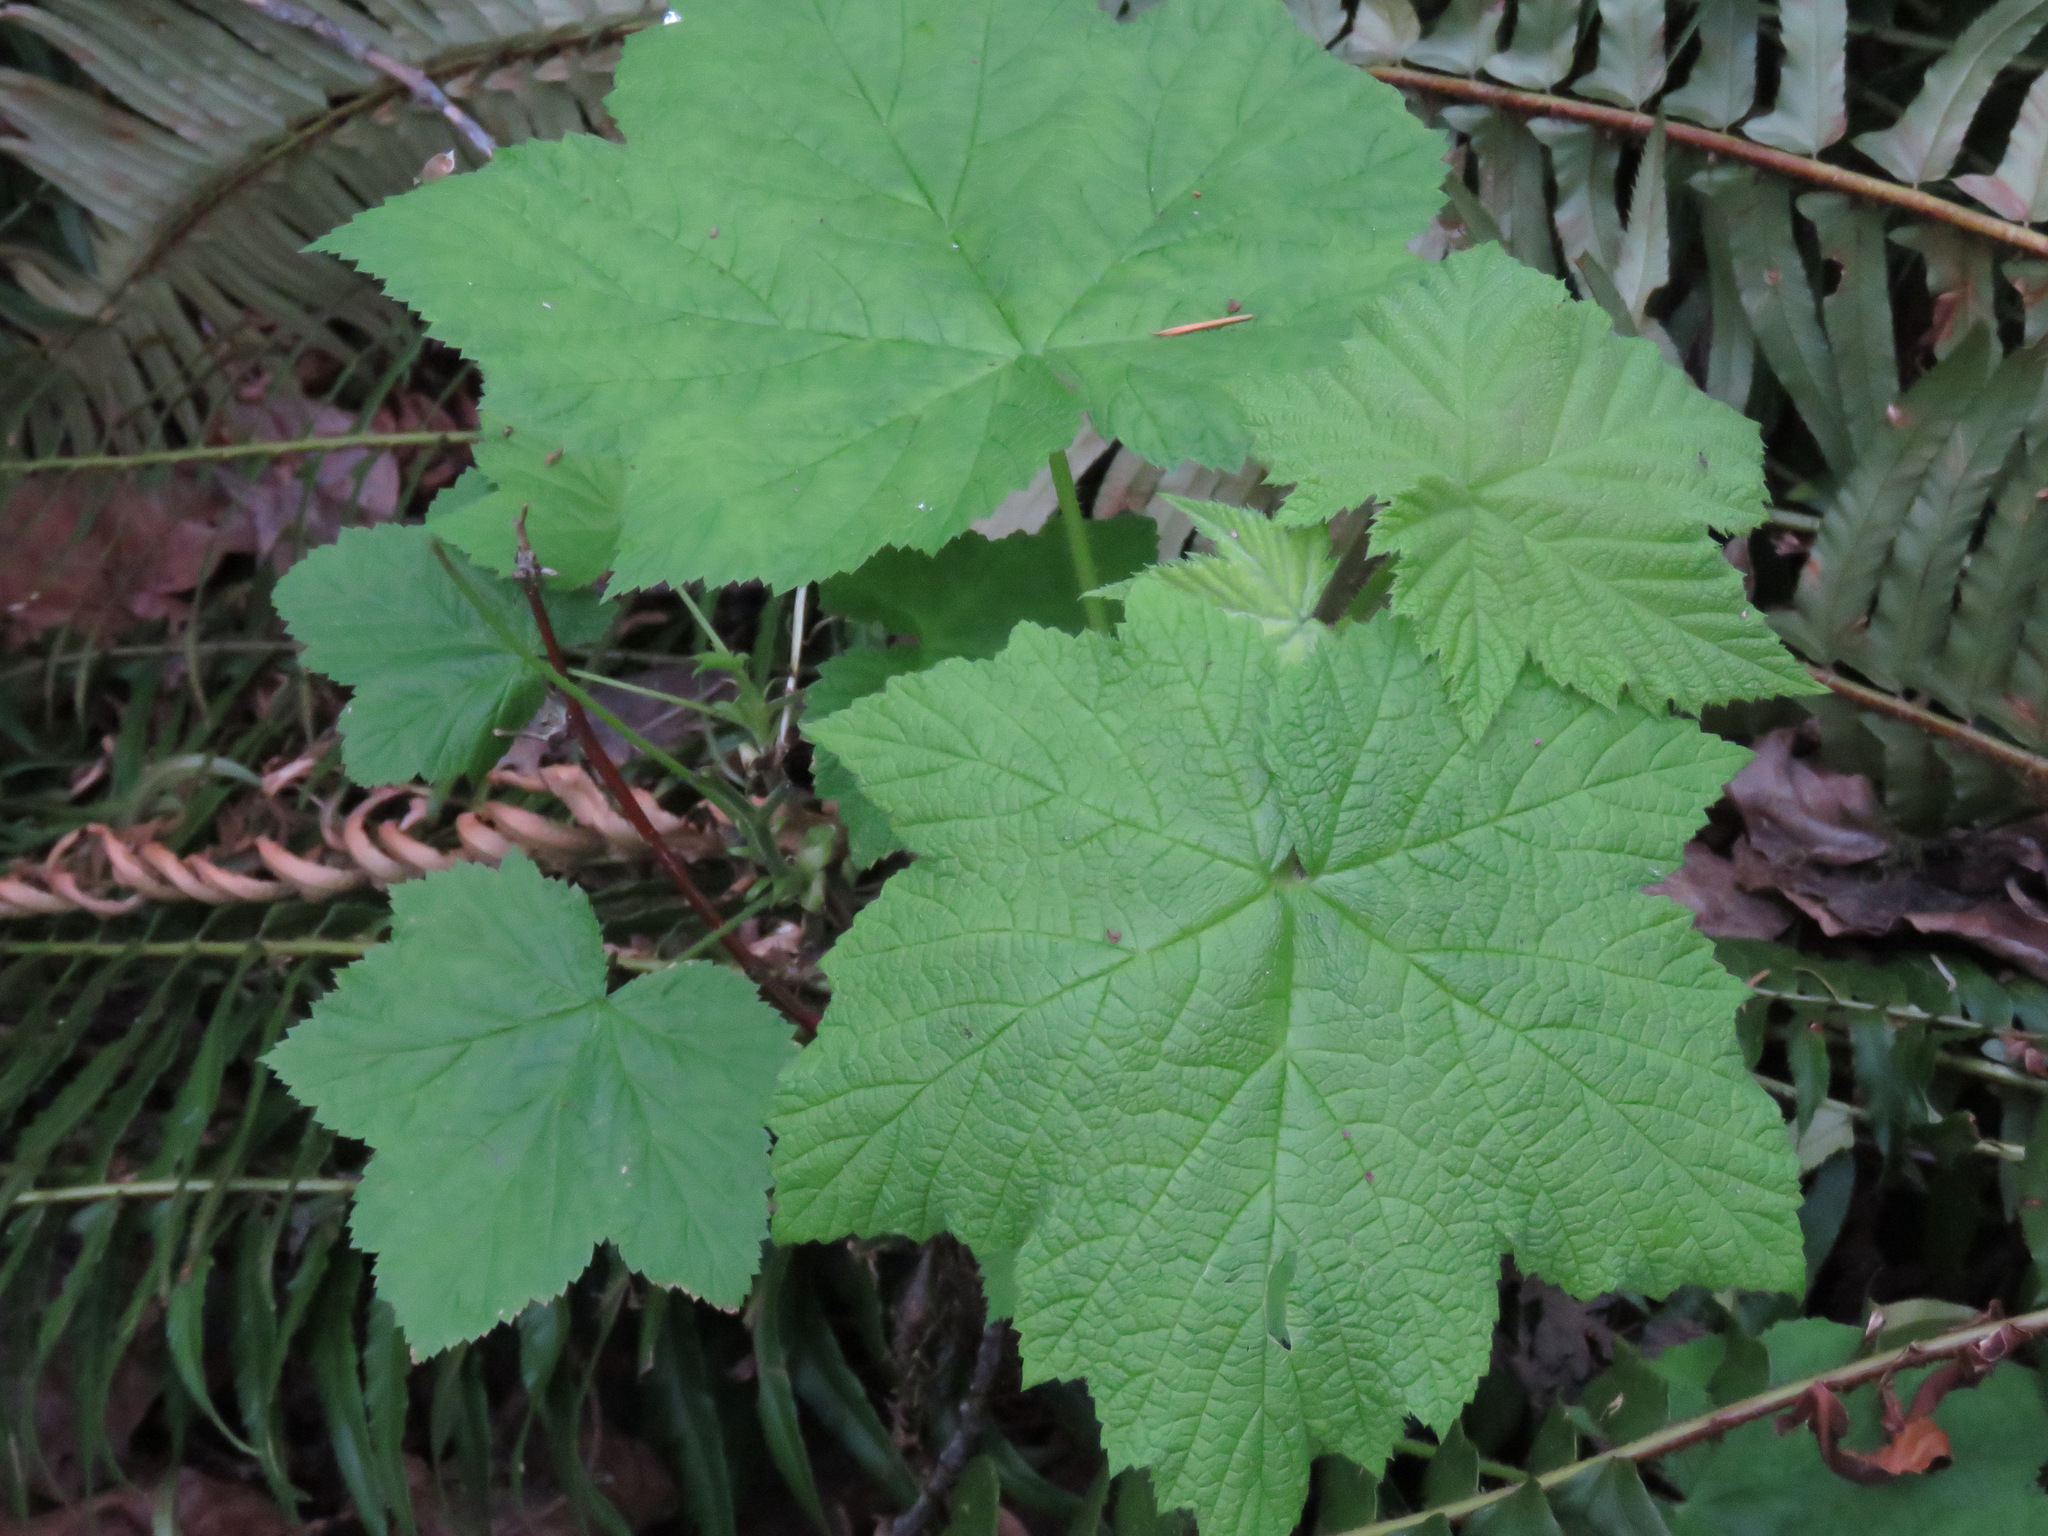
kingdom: Plantae
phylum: Tracheophyta
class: Magnoliopsida
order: Rosales
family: Rosaceae
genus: Rubus
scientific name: Rubus parviflorus
